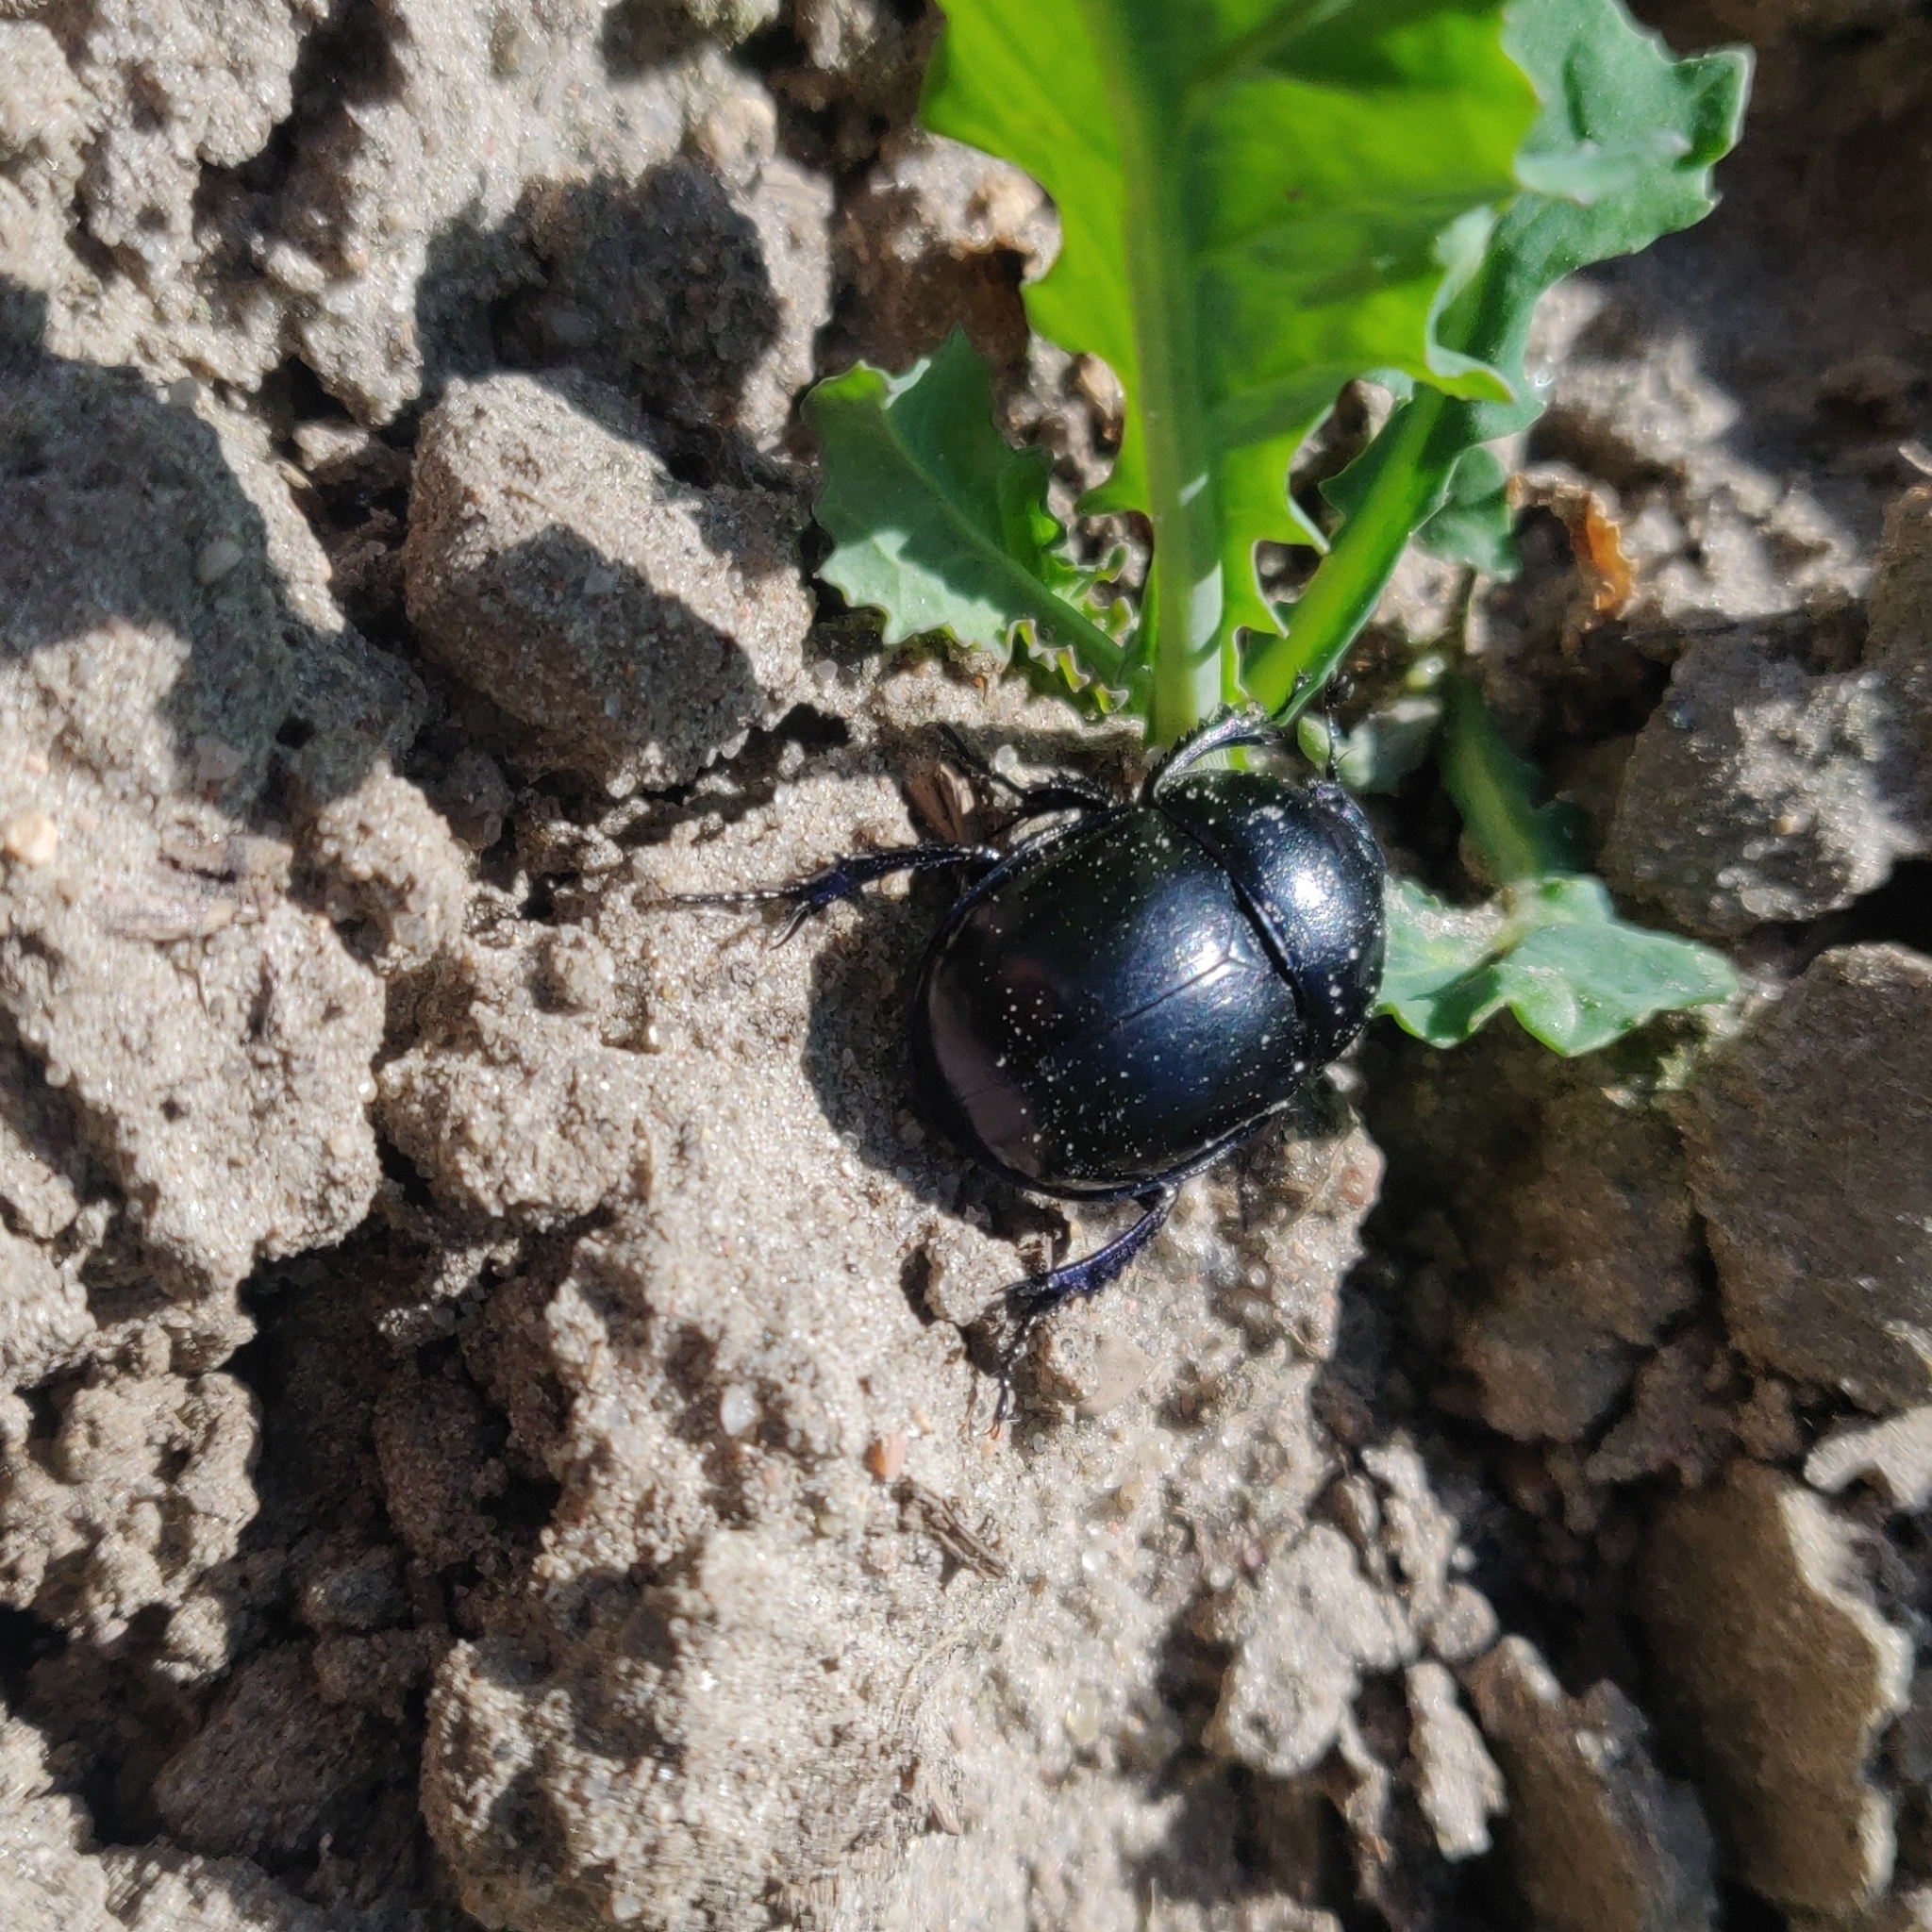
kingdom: Animalia
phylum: Arthropoda
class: Insecta
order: Coleoptera
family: Geotrupidae
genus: Trypocopris
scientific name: Trypocopris vernalis
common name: Spring dumbledor
